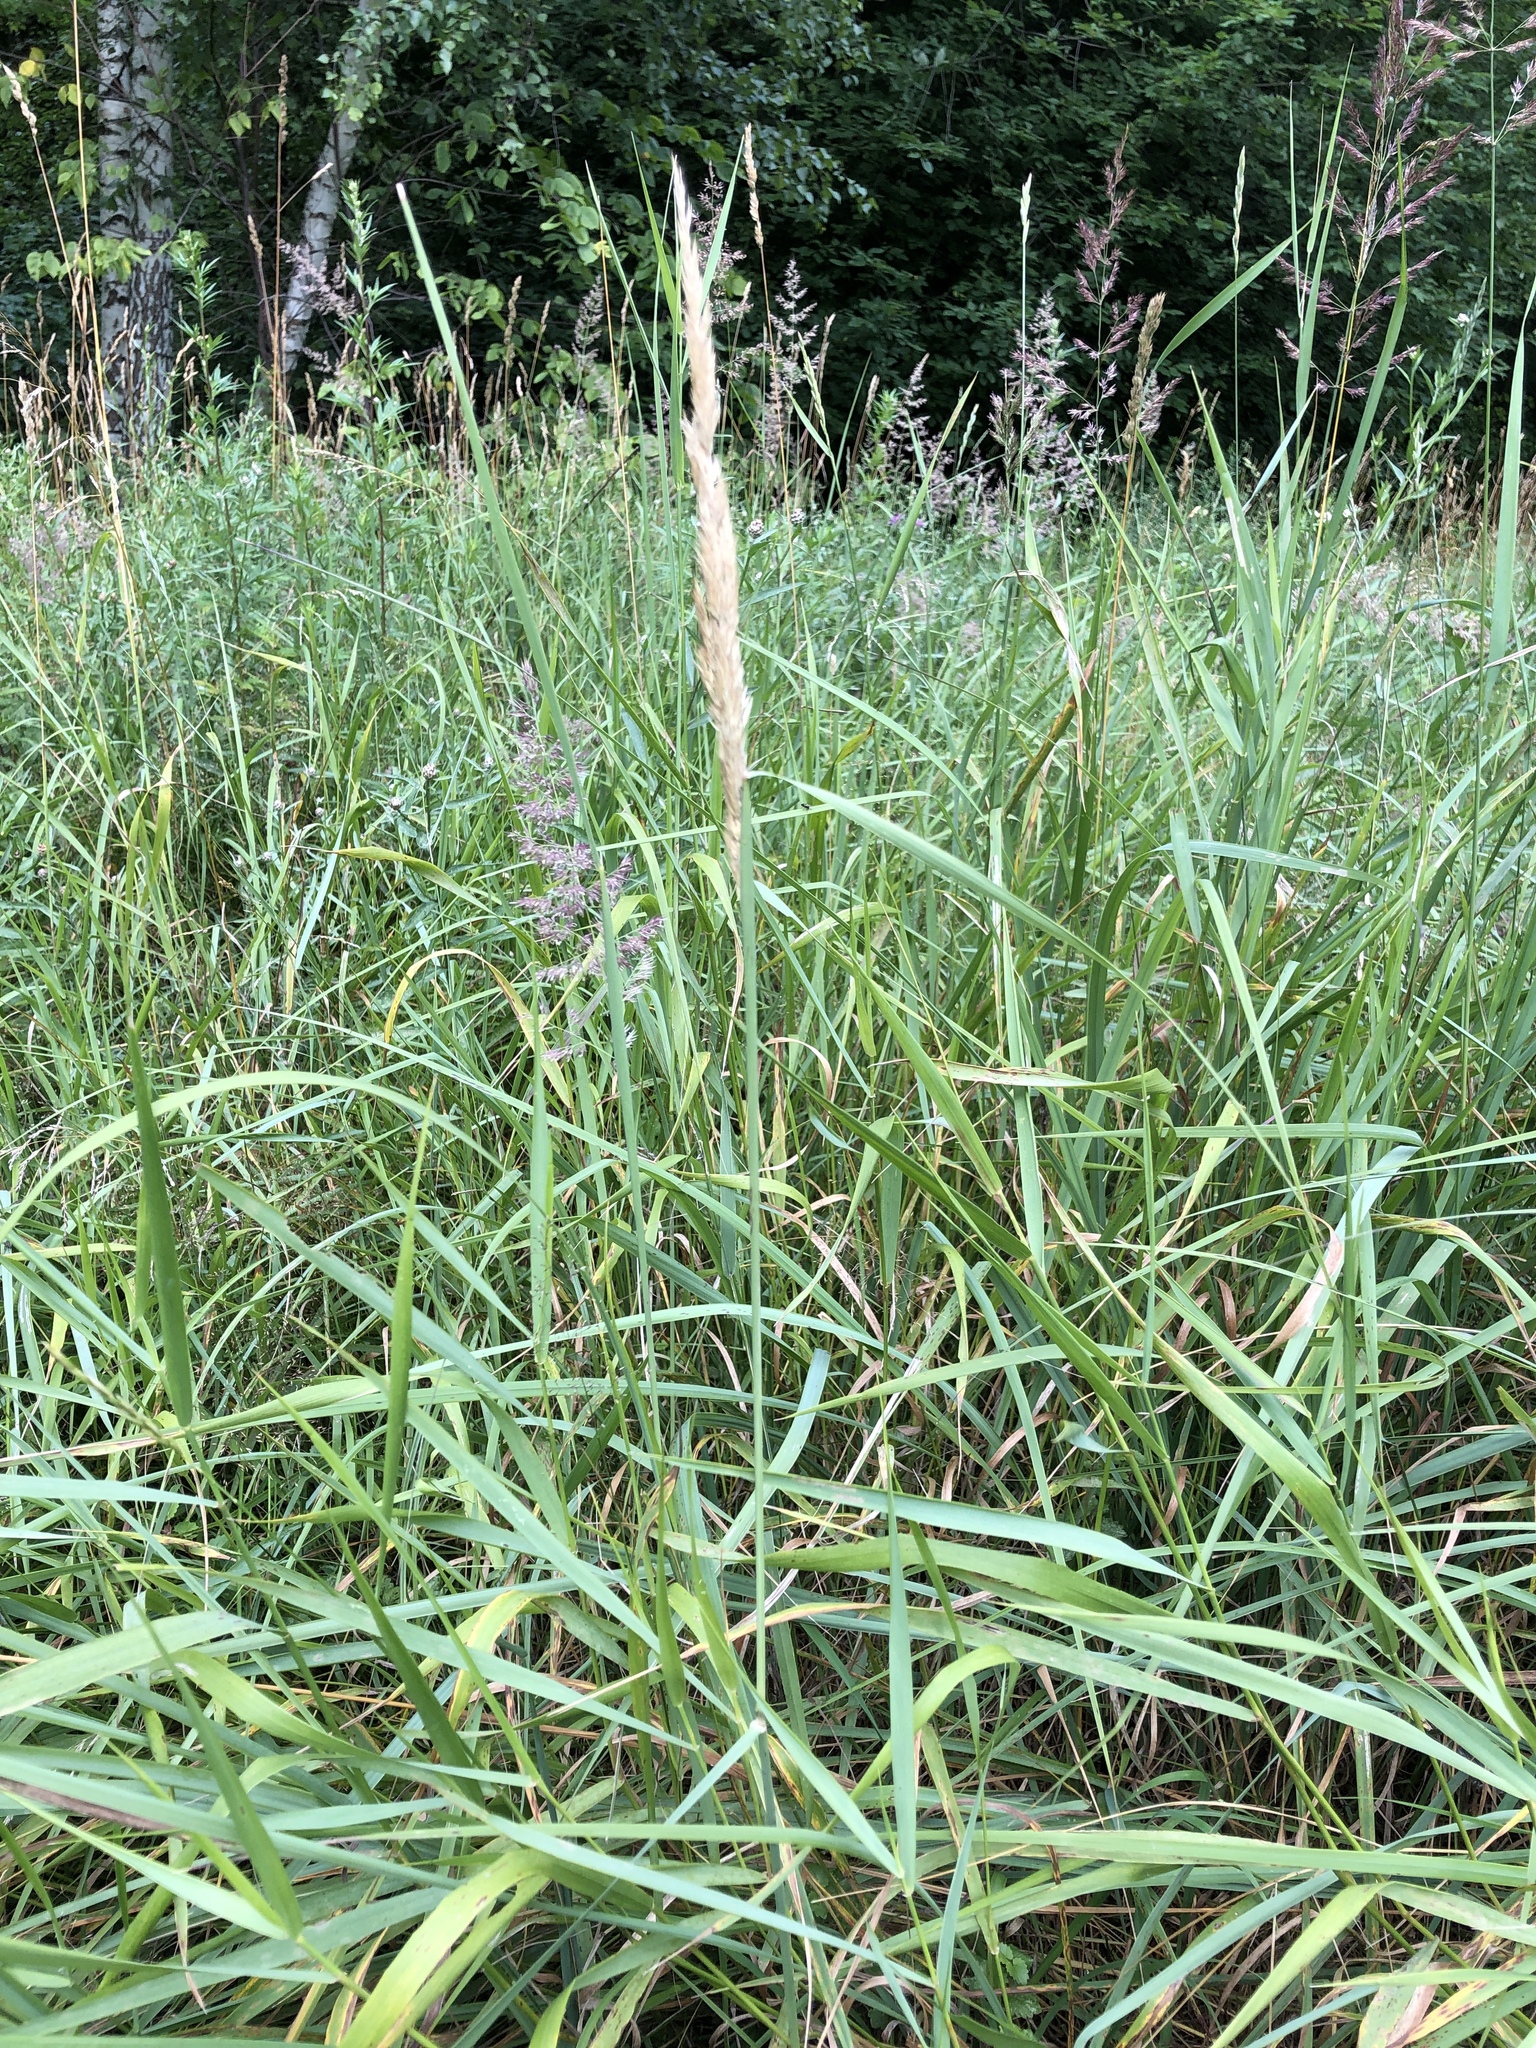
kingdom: Plantae
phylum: Tracheophyta
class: Liliopsida
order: Poales
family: Poaceae
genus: Calamagrostis
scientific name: Calamagrostis epigejos
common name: Wood small-reed
